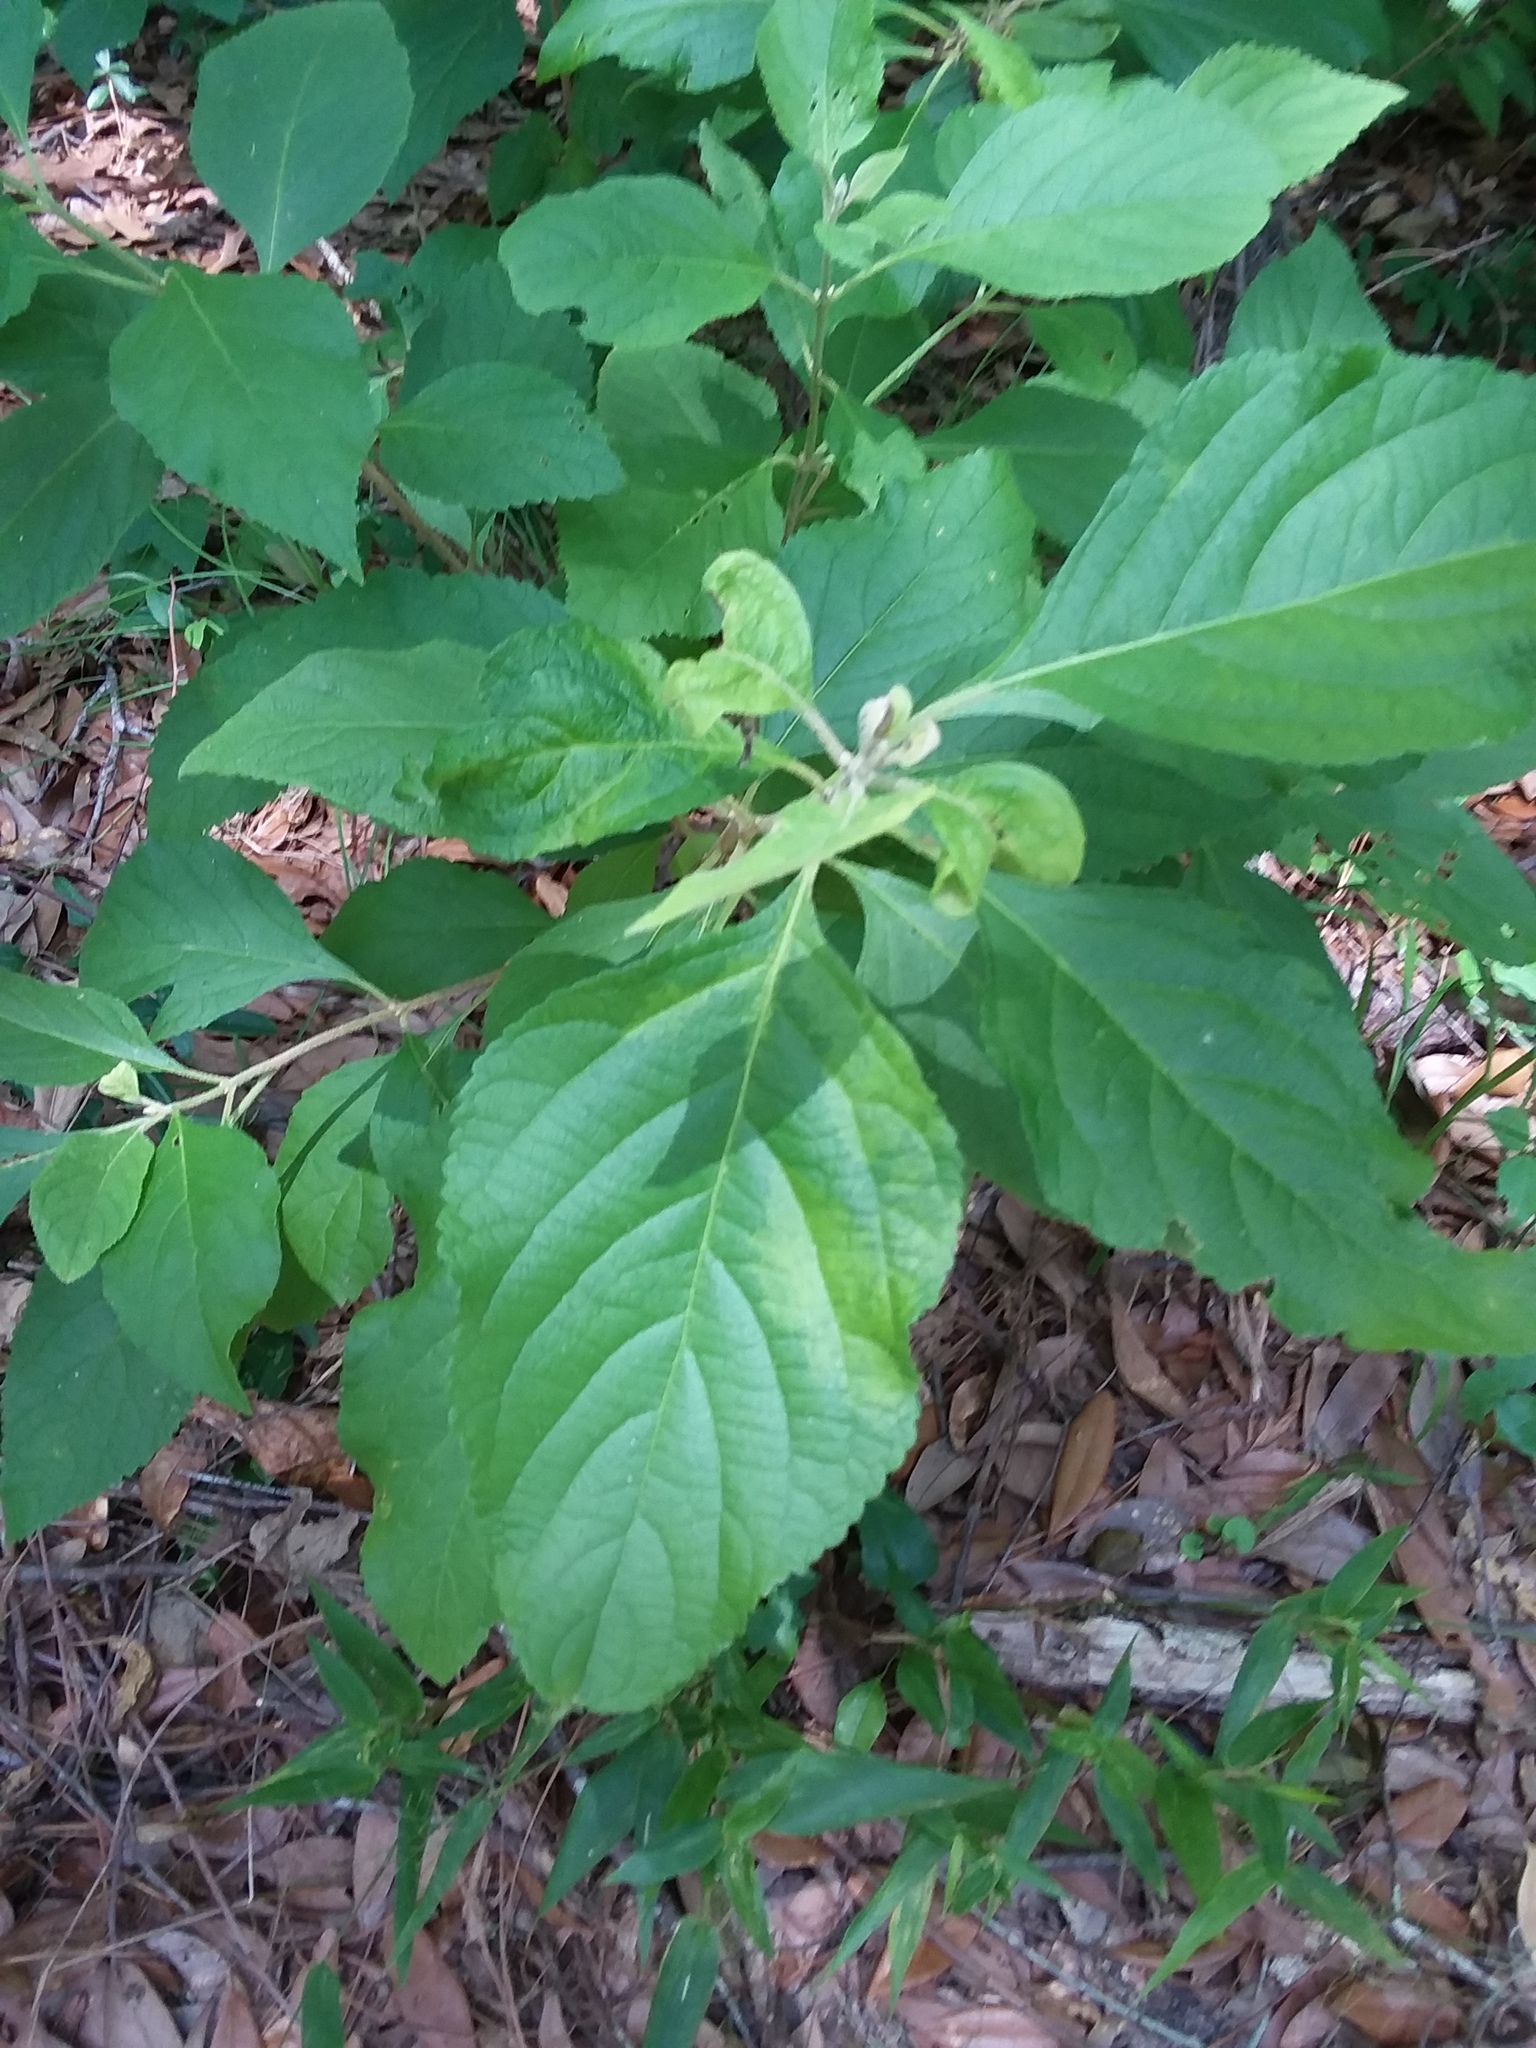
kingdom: Plantae
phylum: Tracheophyta
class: Magnoliopsida
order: Lamiales
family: Lamiaceae
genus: Callicarpa
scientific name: Callicarpa americana
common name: American beautyberry
